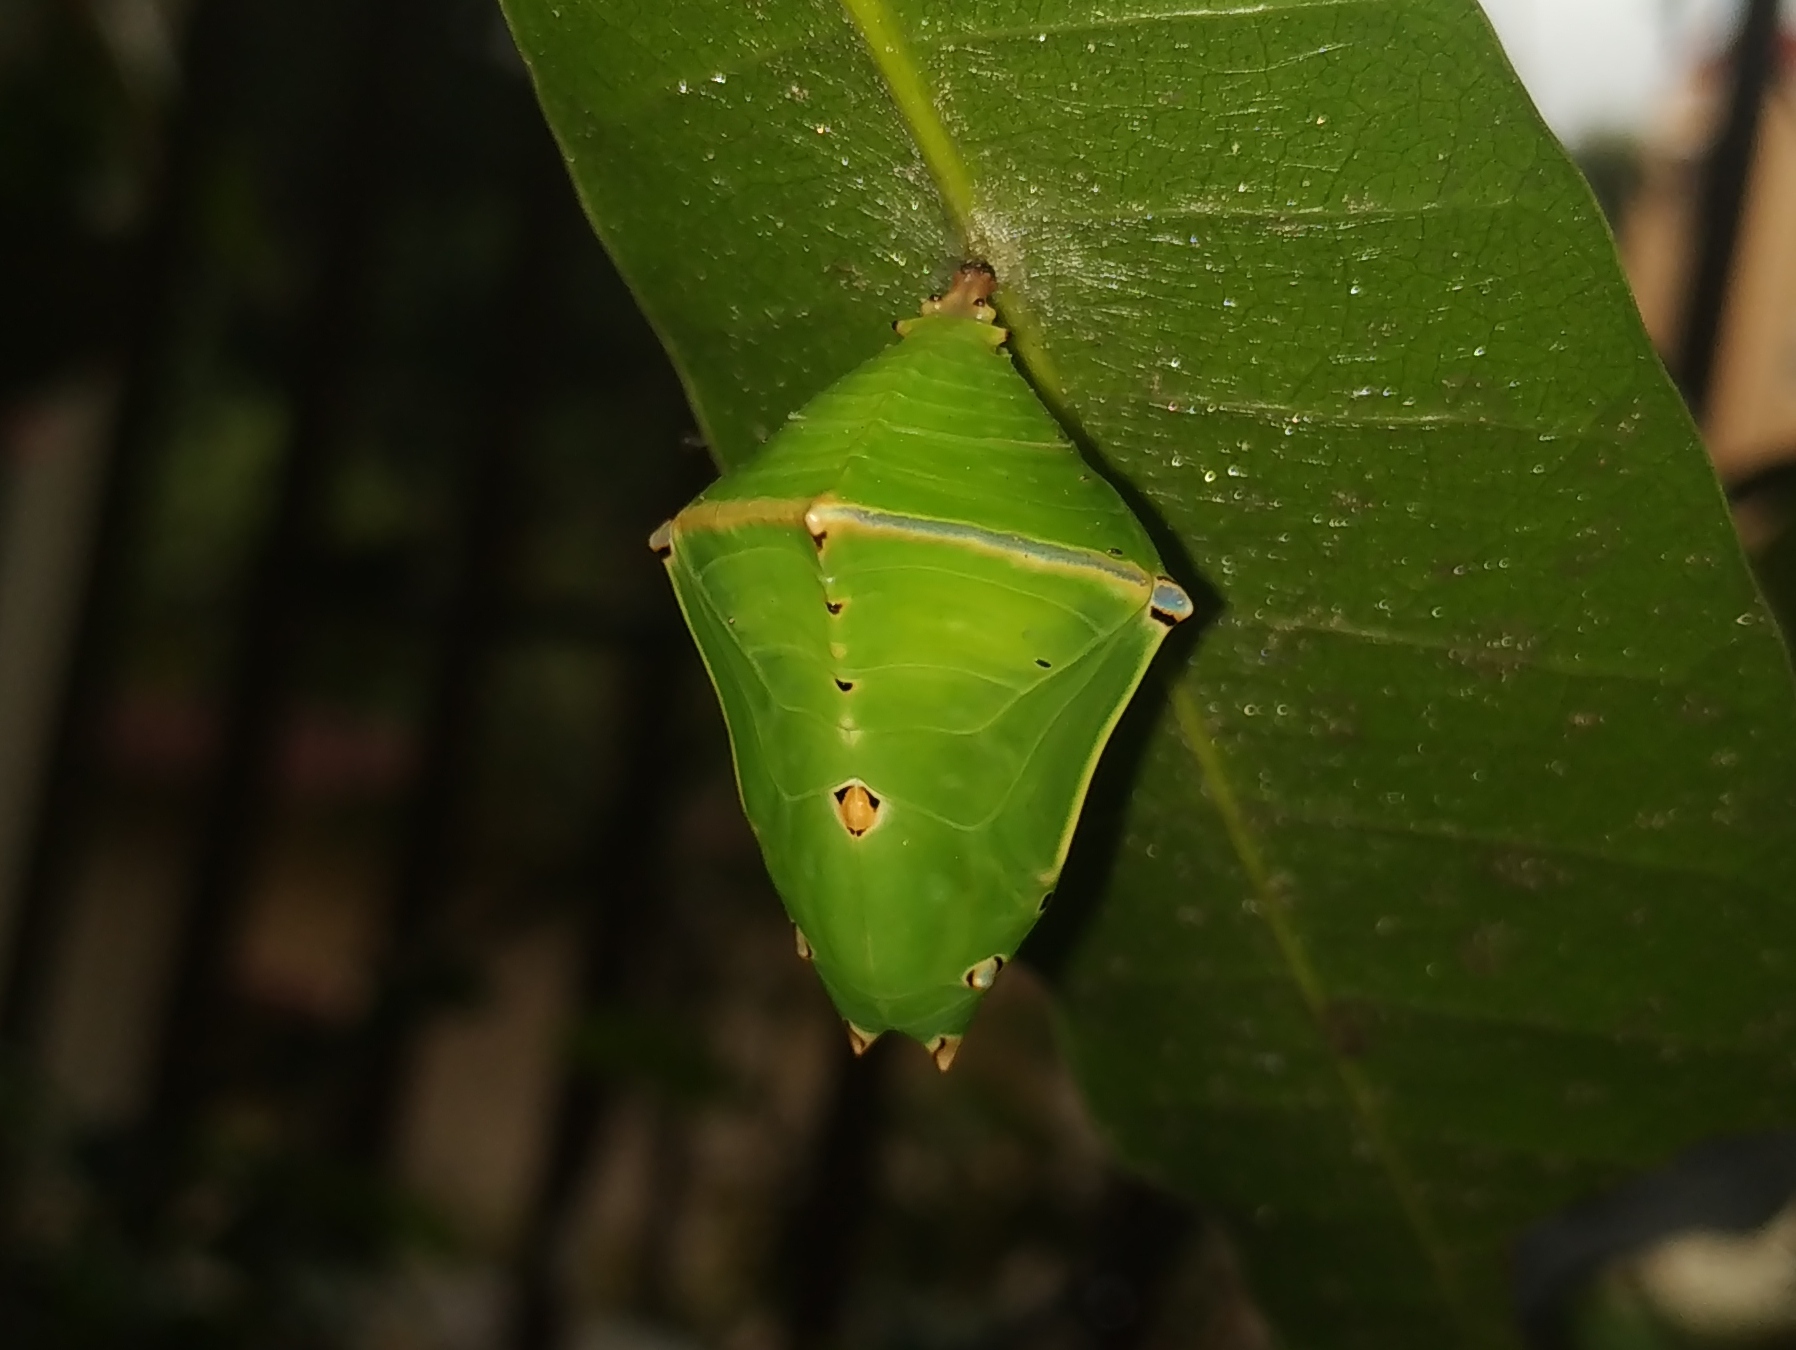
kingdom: Animalia
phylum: Arthropoda
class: Insecta
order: Lepidoptera
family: Nymphalidae
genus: Euthalia
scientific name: Euthalia aconthea
